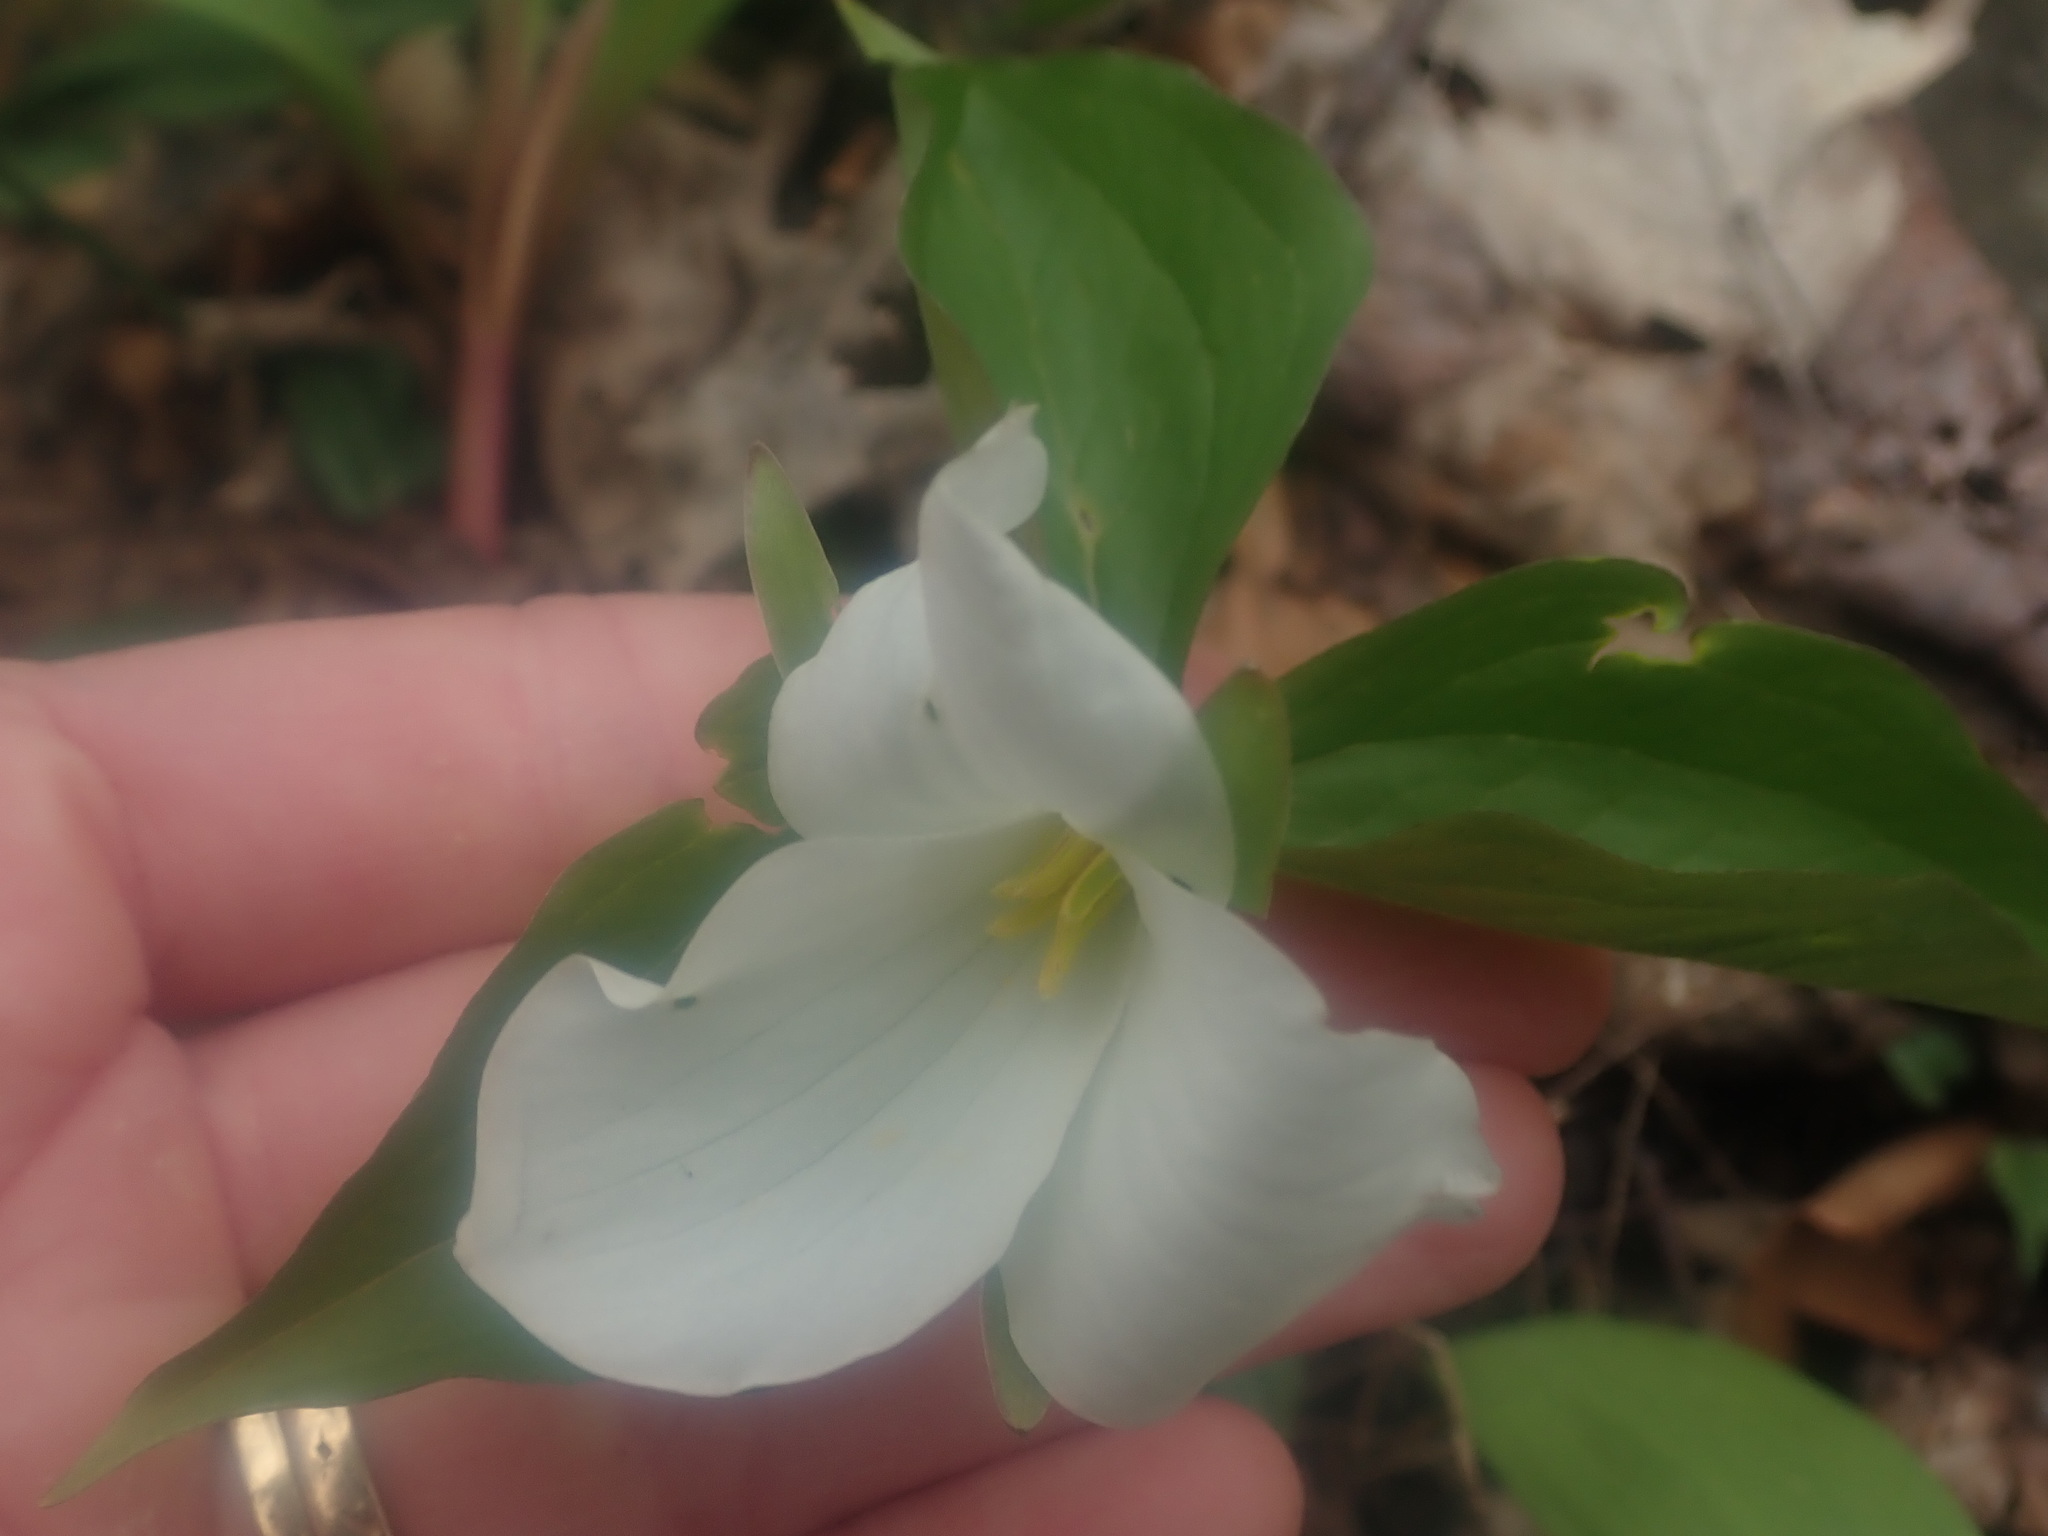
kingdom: Plantae
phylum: Tracheophyta
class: Liliopsida
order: Liliales
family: Melanthiaceae
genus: Trillium
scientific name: Trillium grandiflorum
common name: Great white trillium
